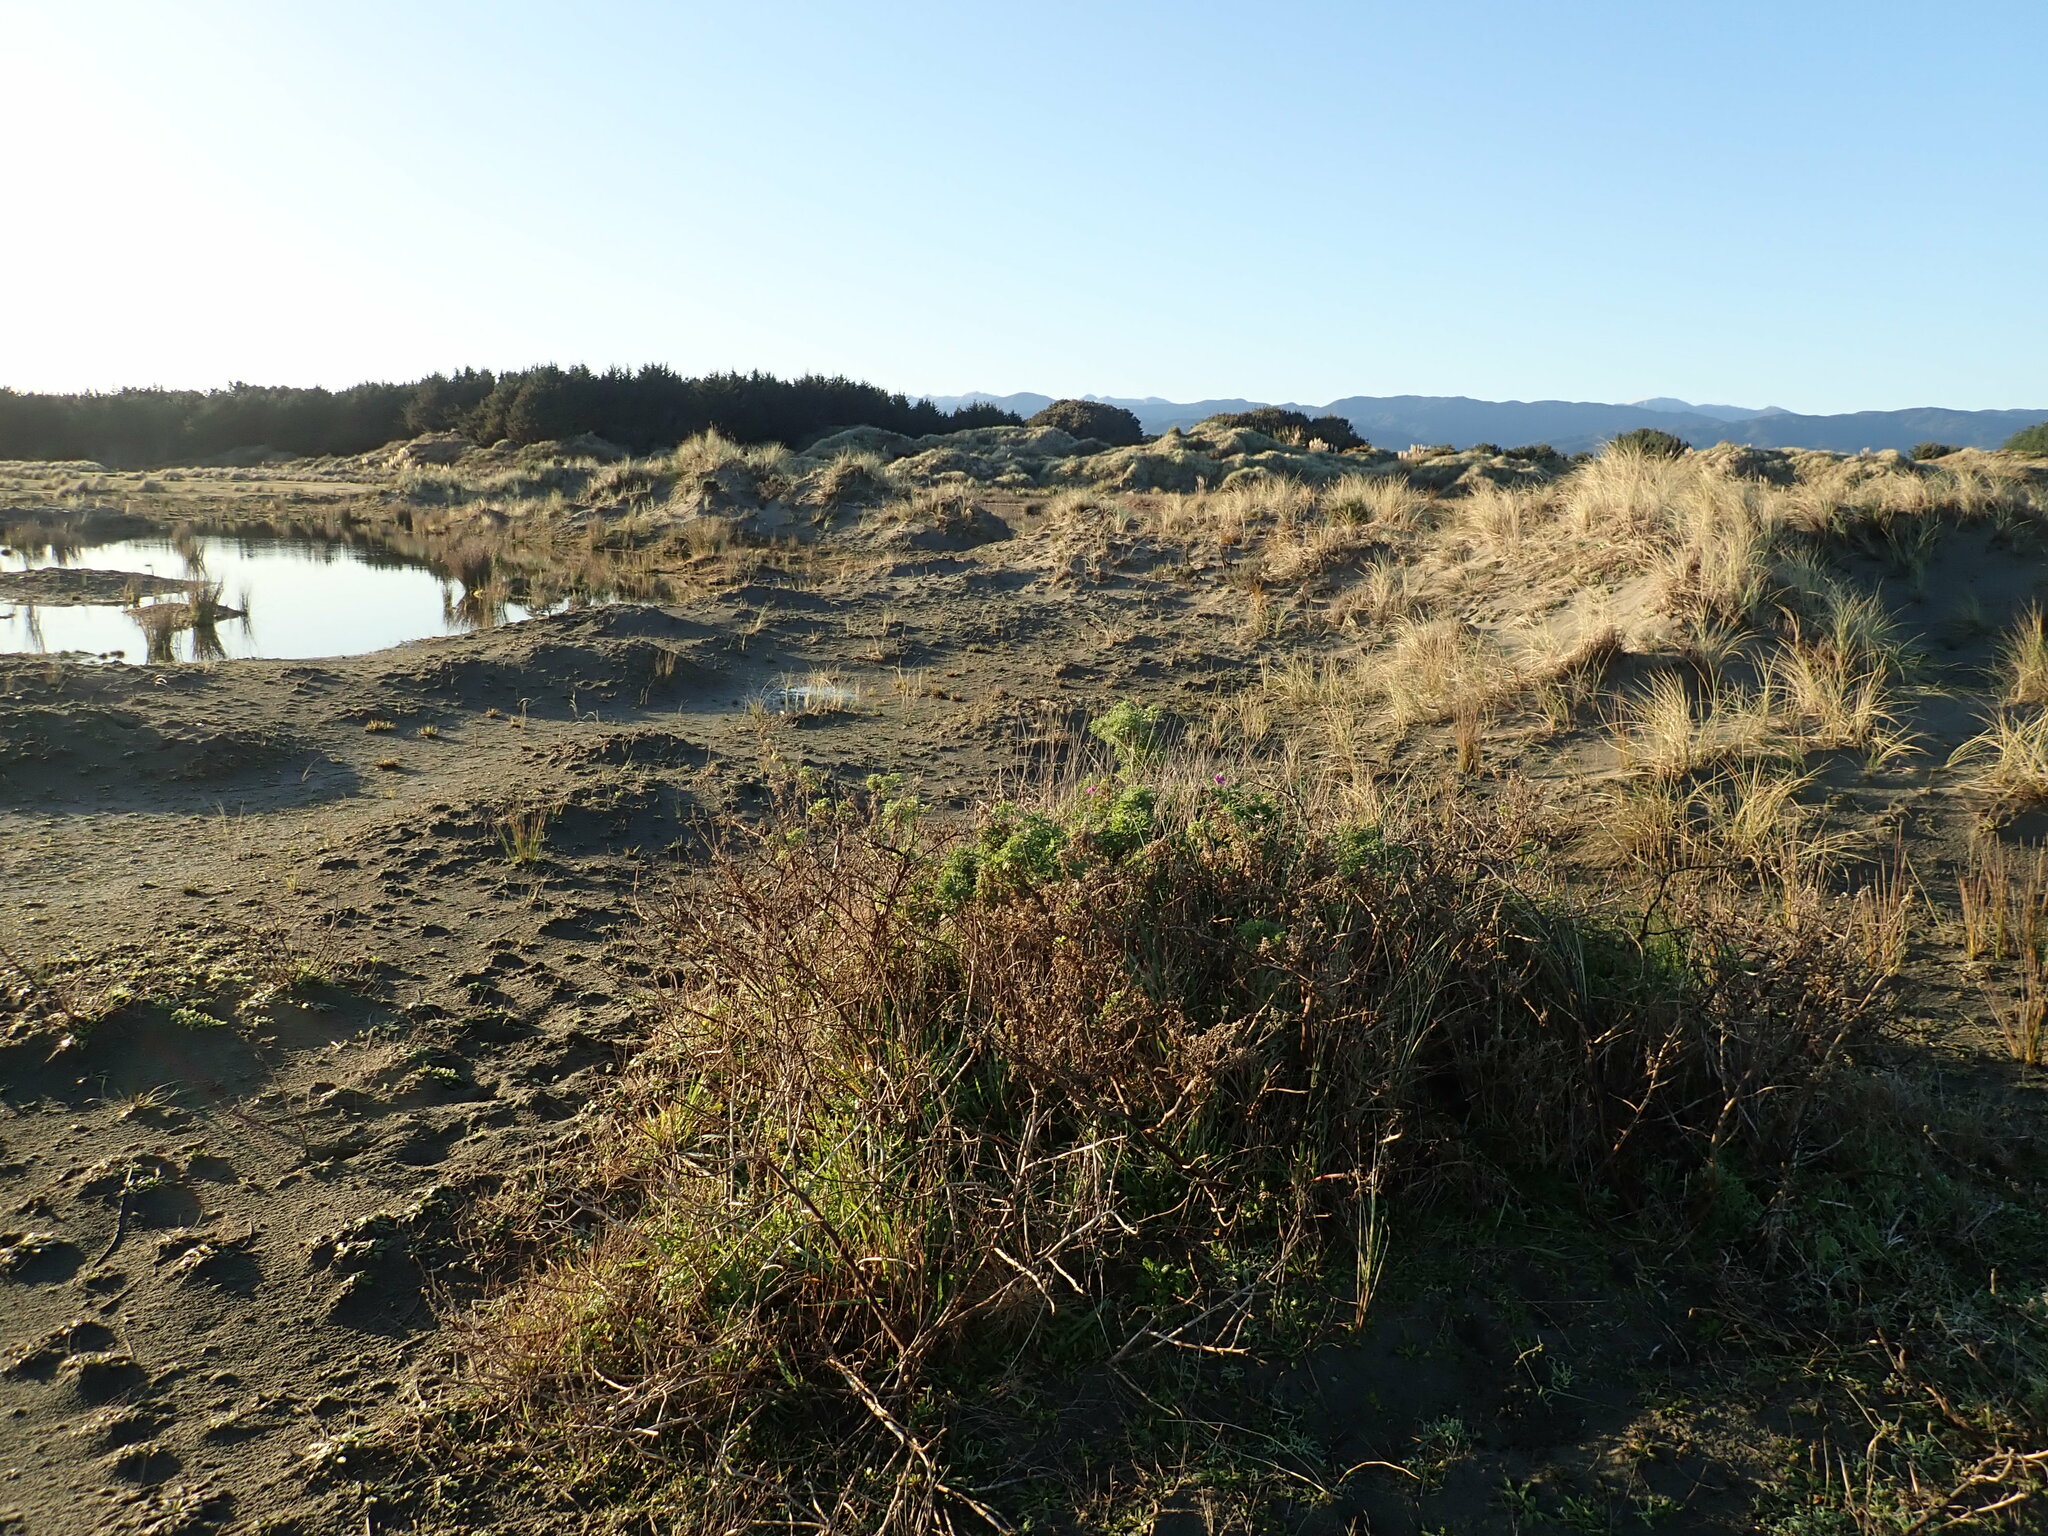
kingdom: Plantae
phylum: Tracheophyta
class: Magnoliopsida
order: Fabales
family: Fabaceae
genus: Lupinus
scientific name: Lupinus arboreus
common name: Yellow bush lupine
